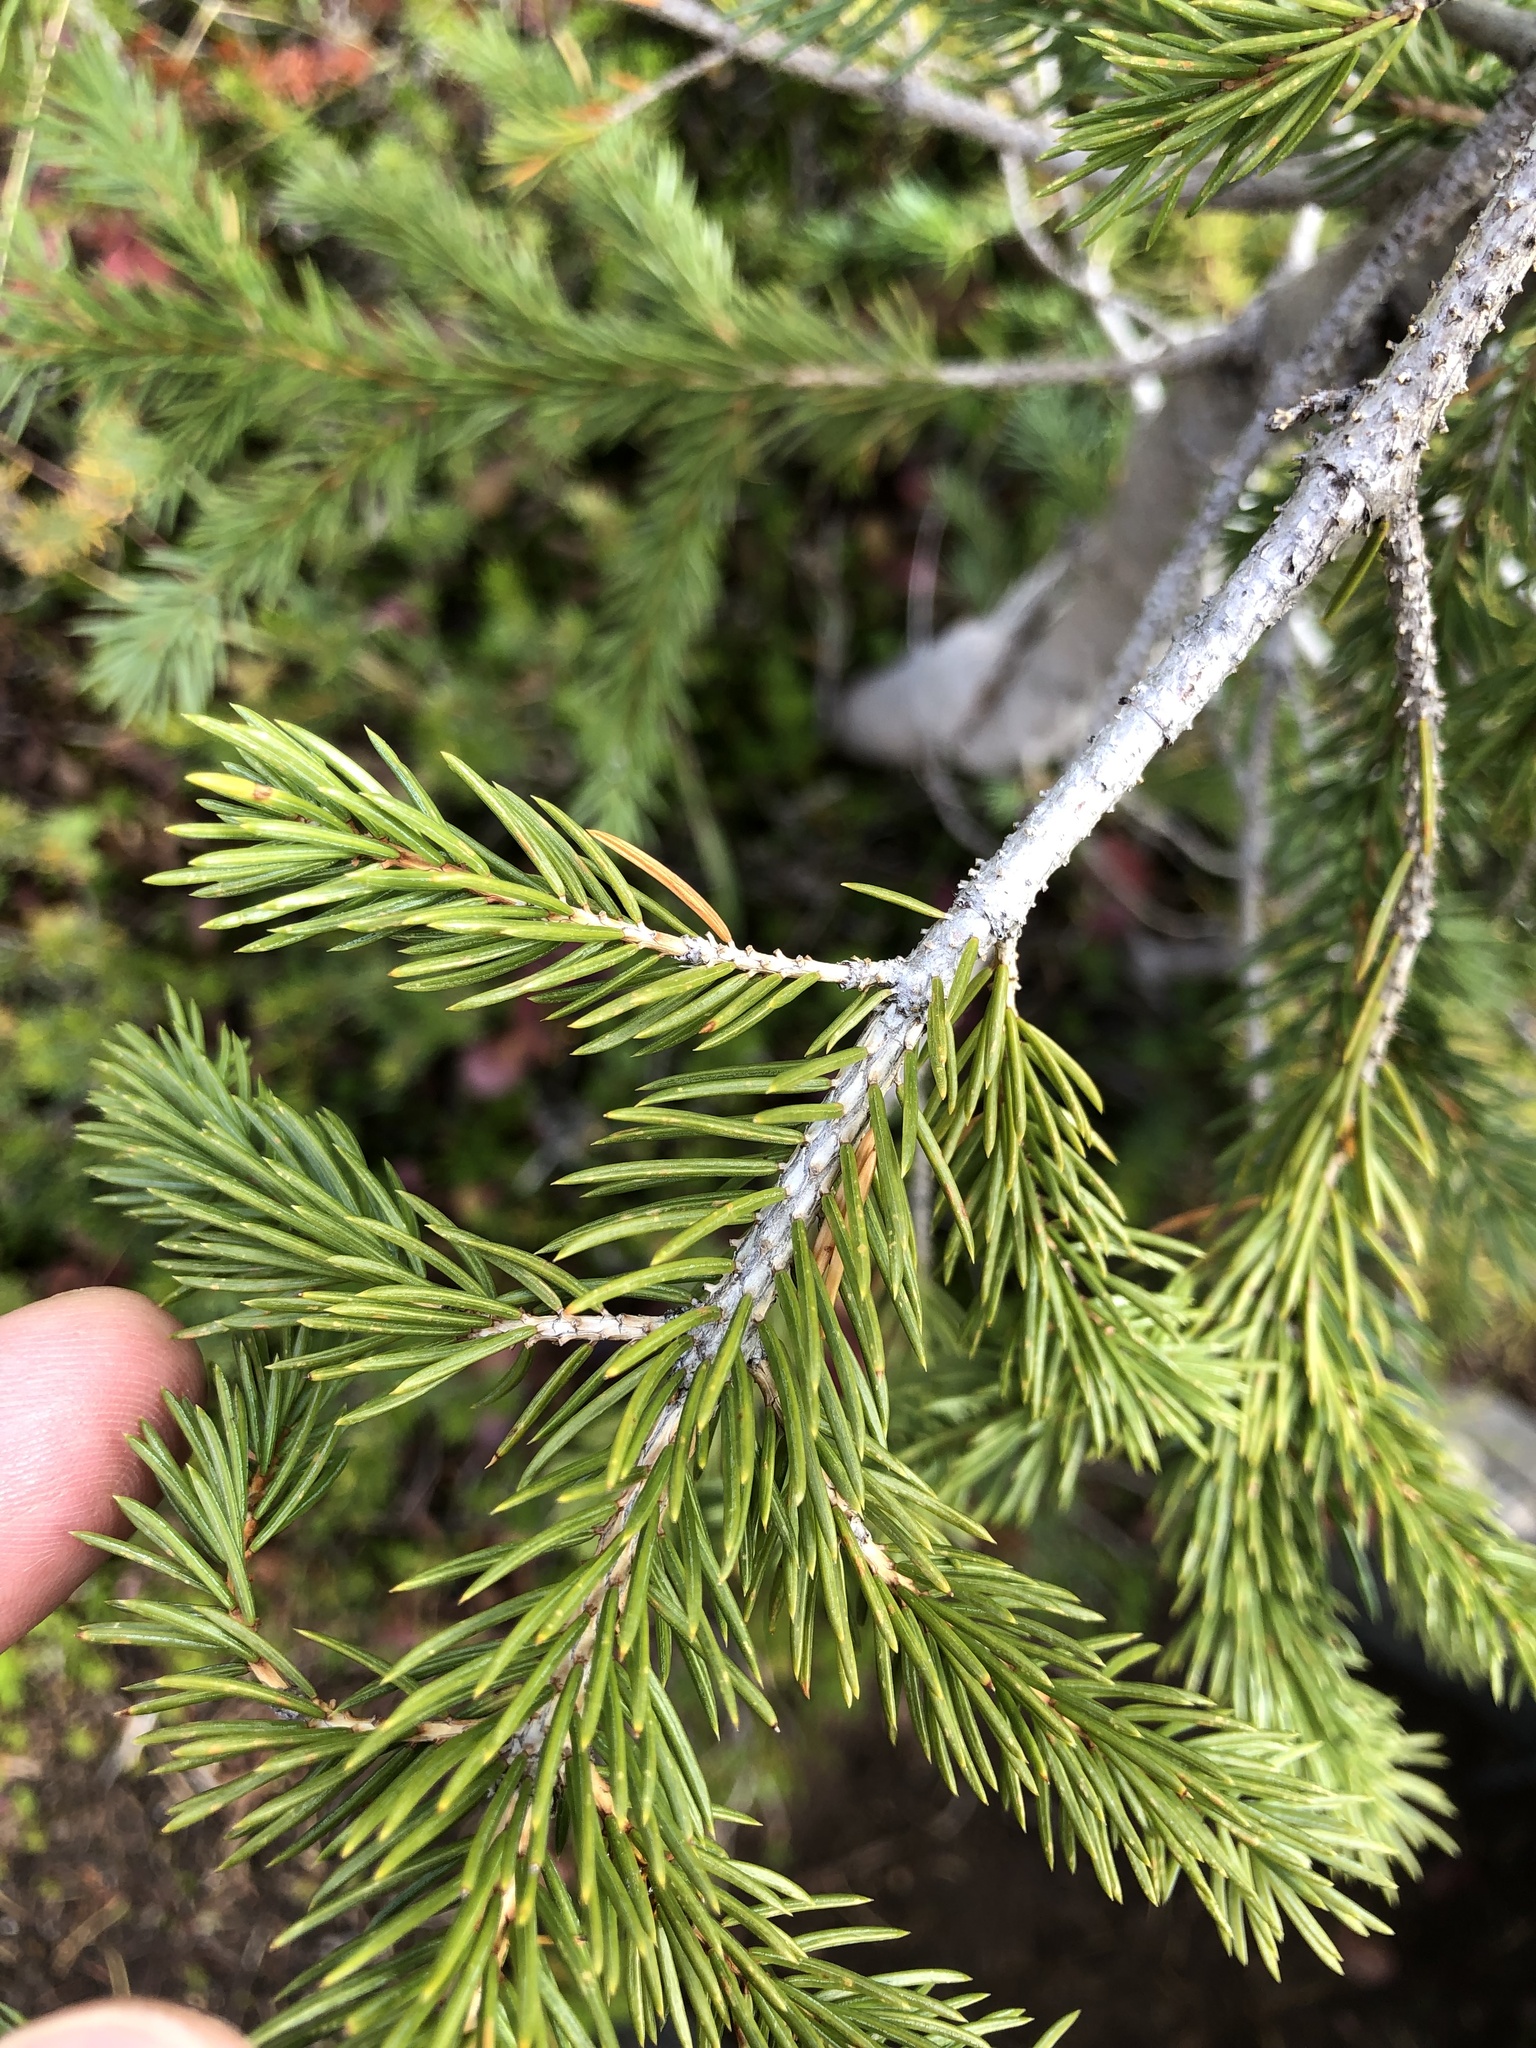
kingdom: Plantae
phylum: Tracheophyta
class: Pinopsida
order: Pinales
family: Pinaceae
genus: Picea
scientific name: Picea engelmannii
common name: Engelmann spruce
